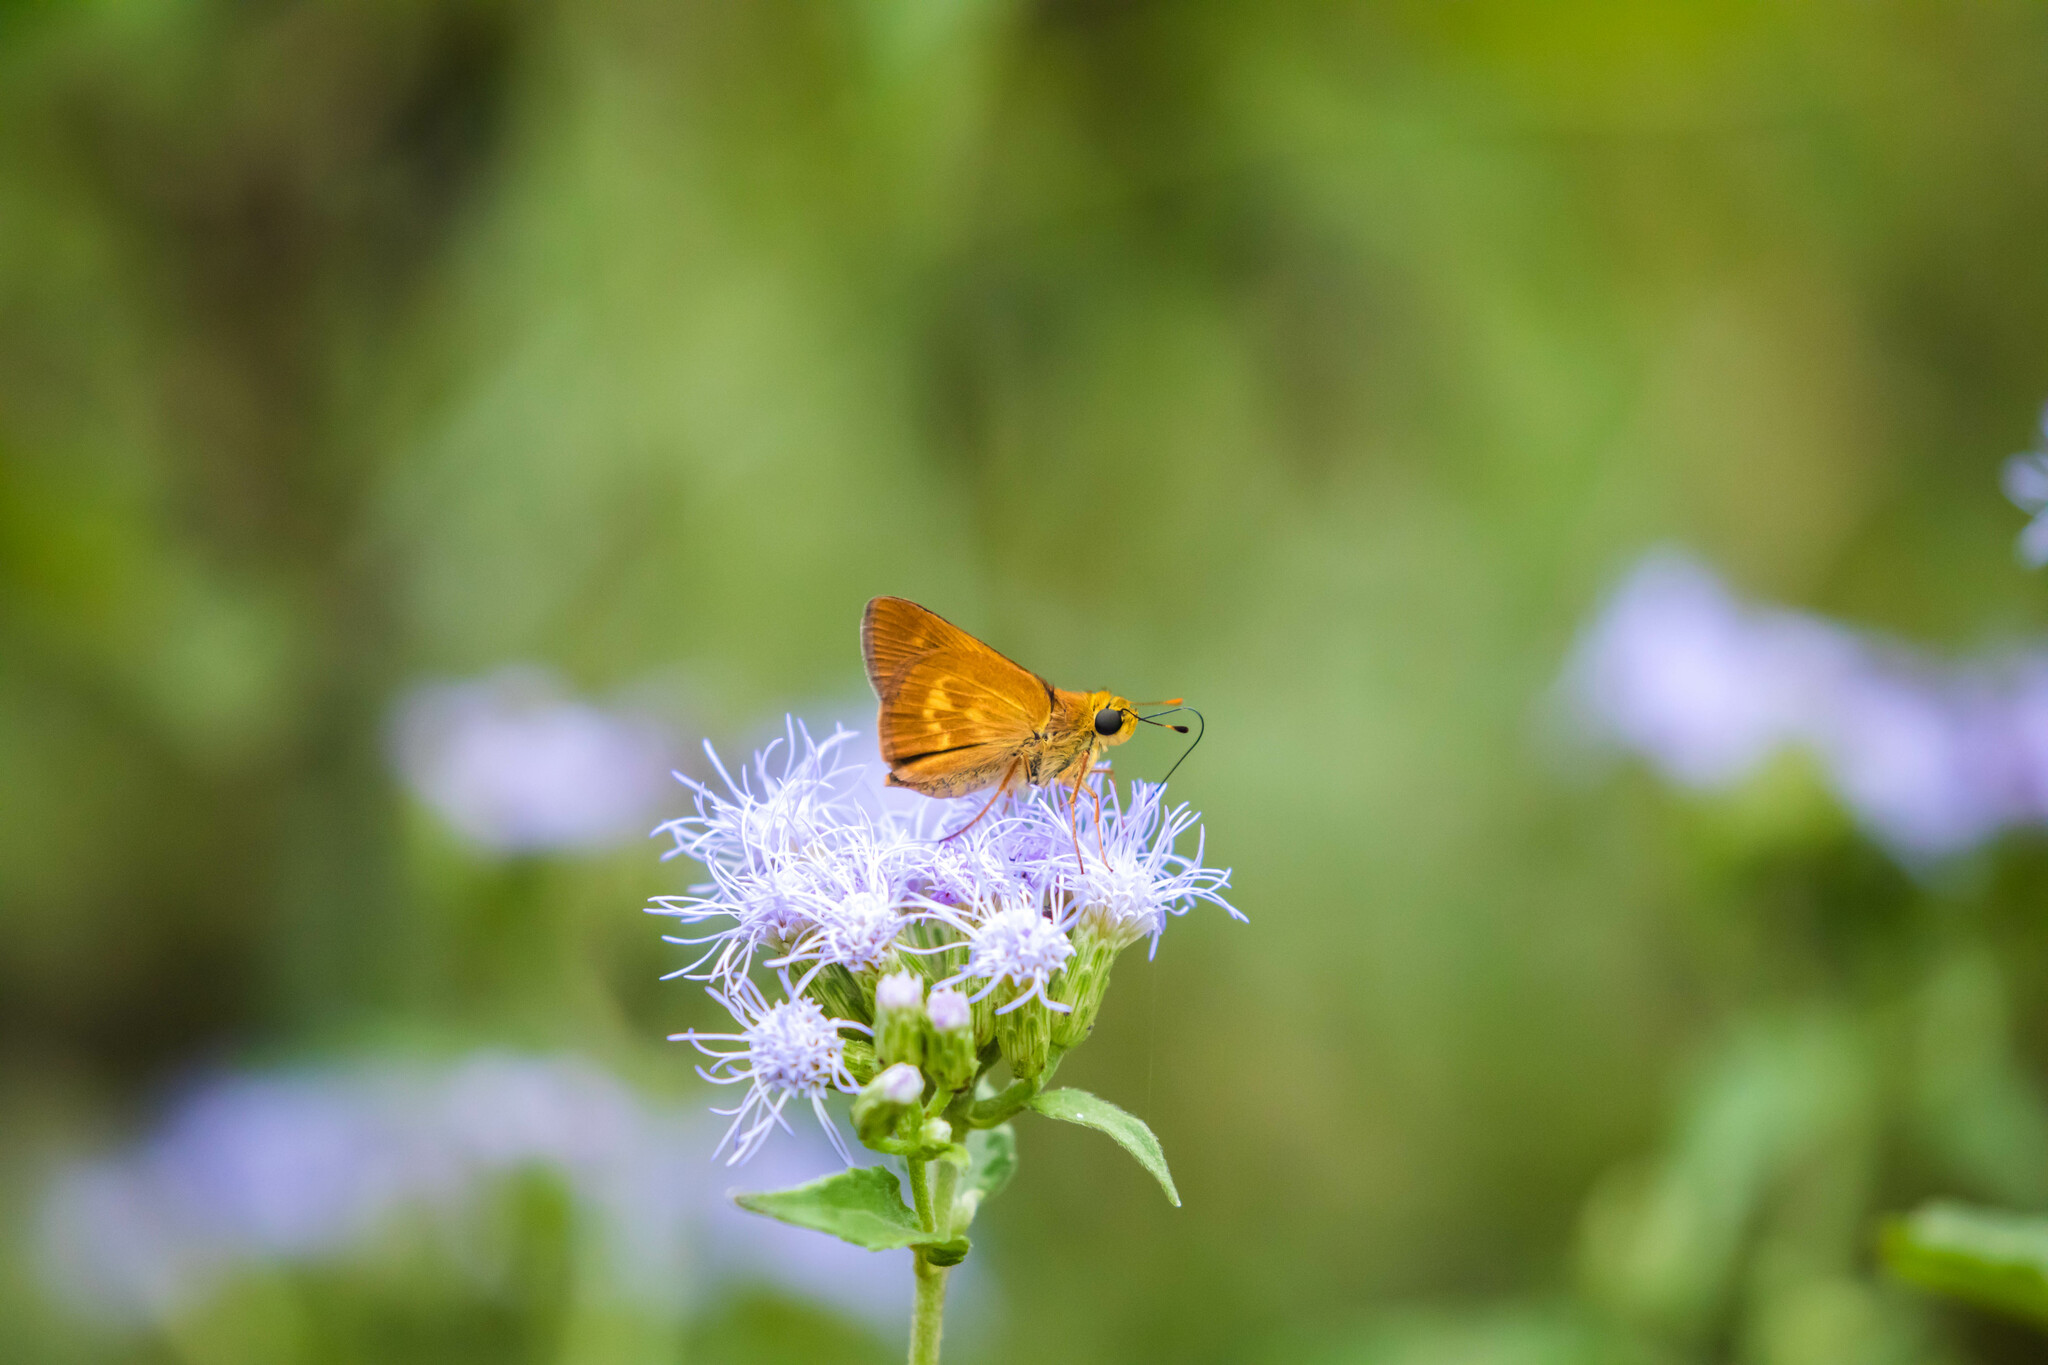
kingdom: Animalia
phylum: Arthropoda
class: Insecta
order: Lepidoptera
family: Hesperiidae
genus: Polites
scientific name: Polites otho
